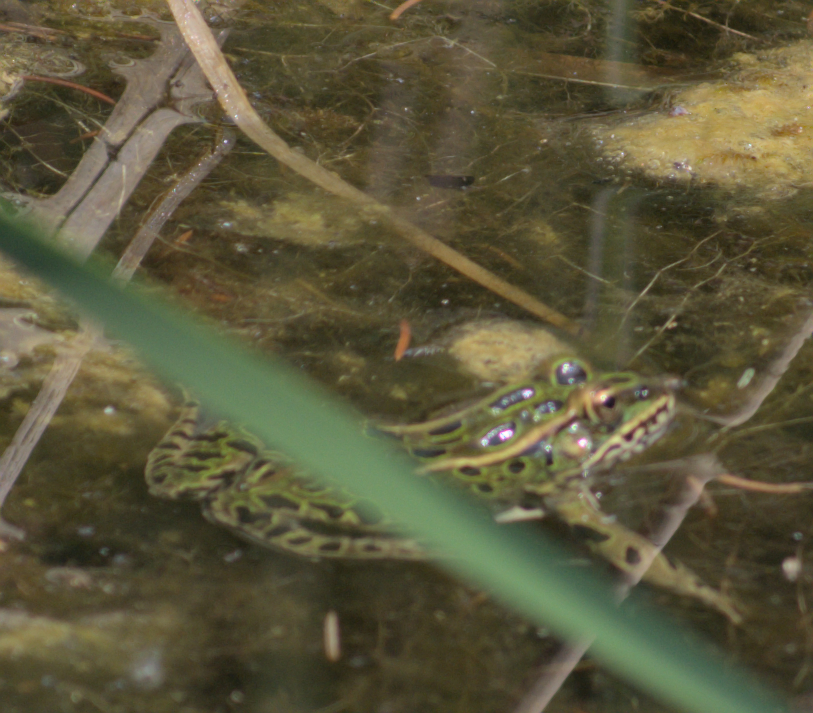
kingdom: Animalia
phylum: Chordata
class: Amphibia
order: Anura
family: Ranidae
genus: Lithobates
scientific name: Lithobates pipiens
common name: Northern leopard frog
